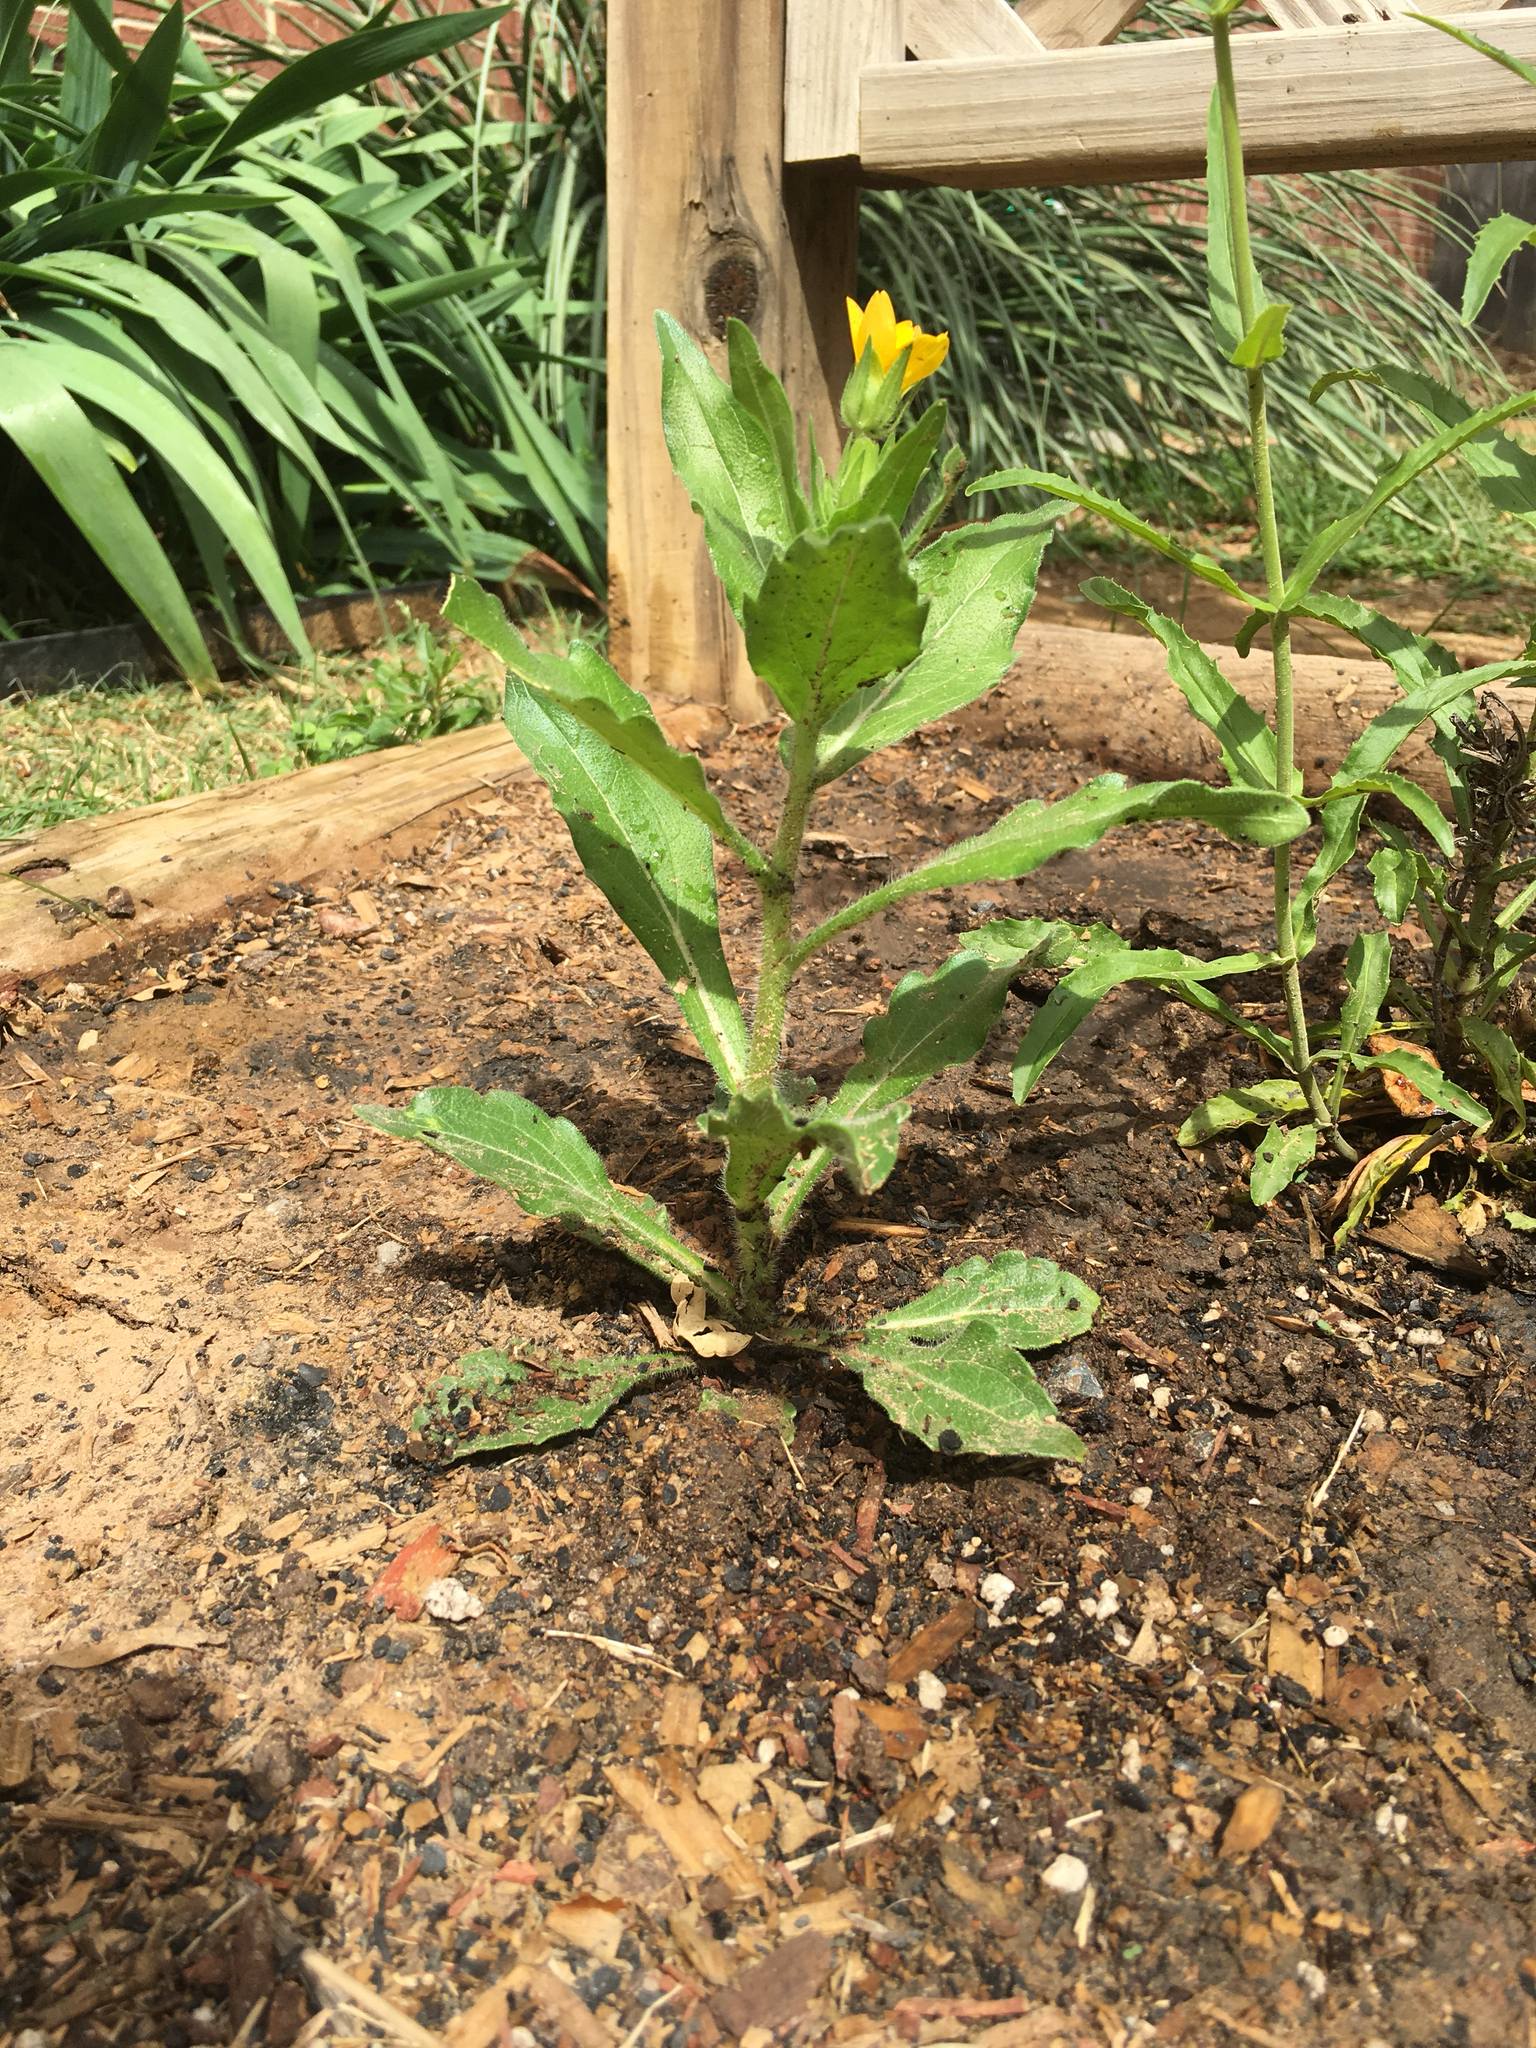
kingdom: Plantae
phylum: Tracheophyta
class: Magnoliopsida
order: Asterales
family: Asteraceae
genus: Lindheimera
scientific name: Lindheimera texana
